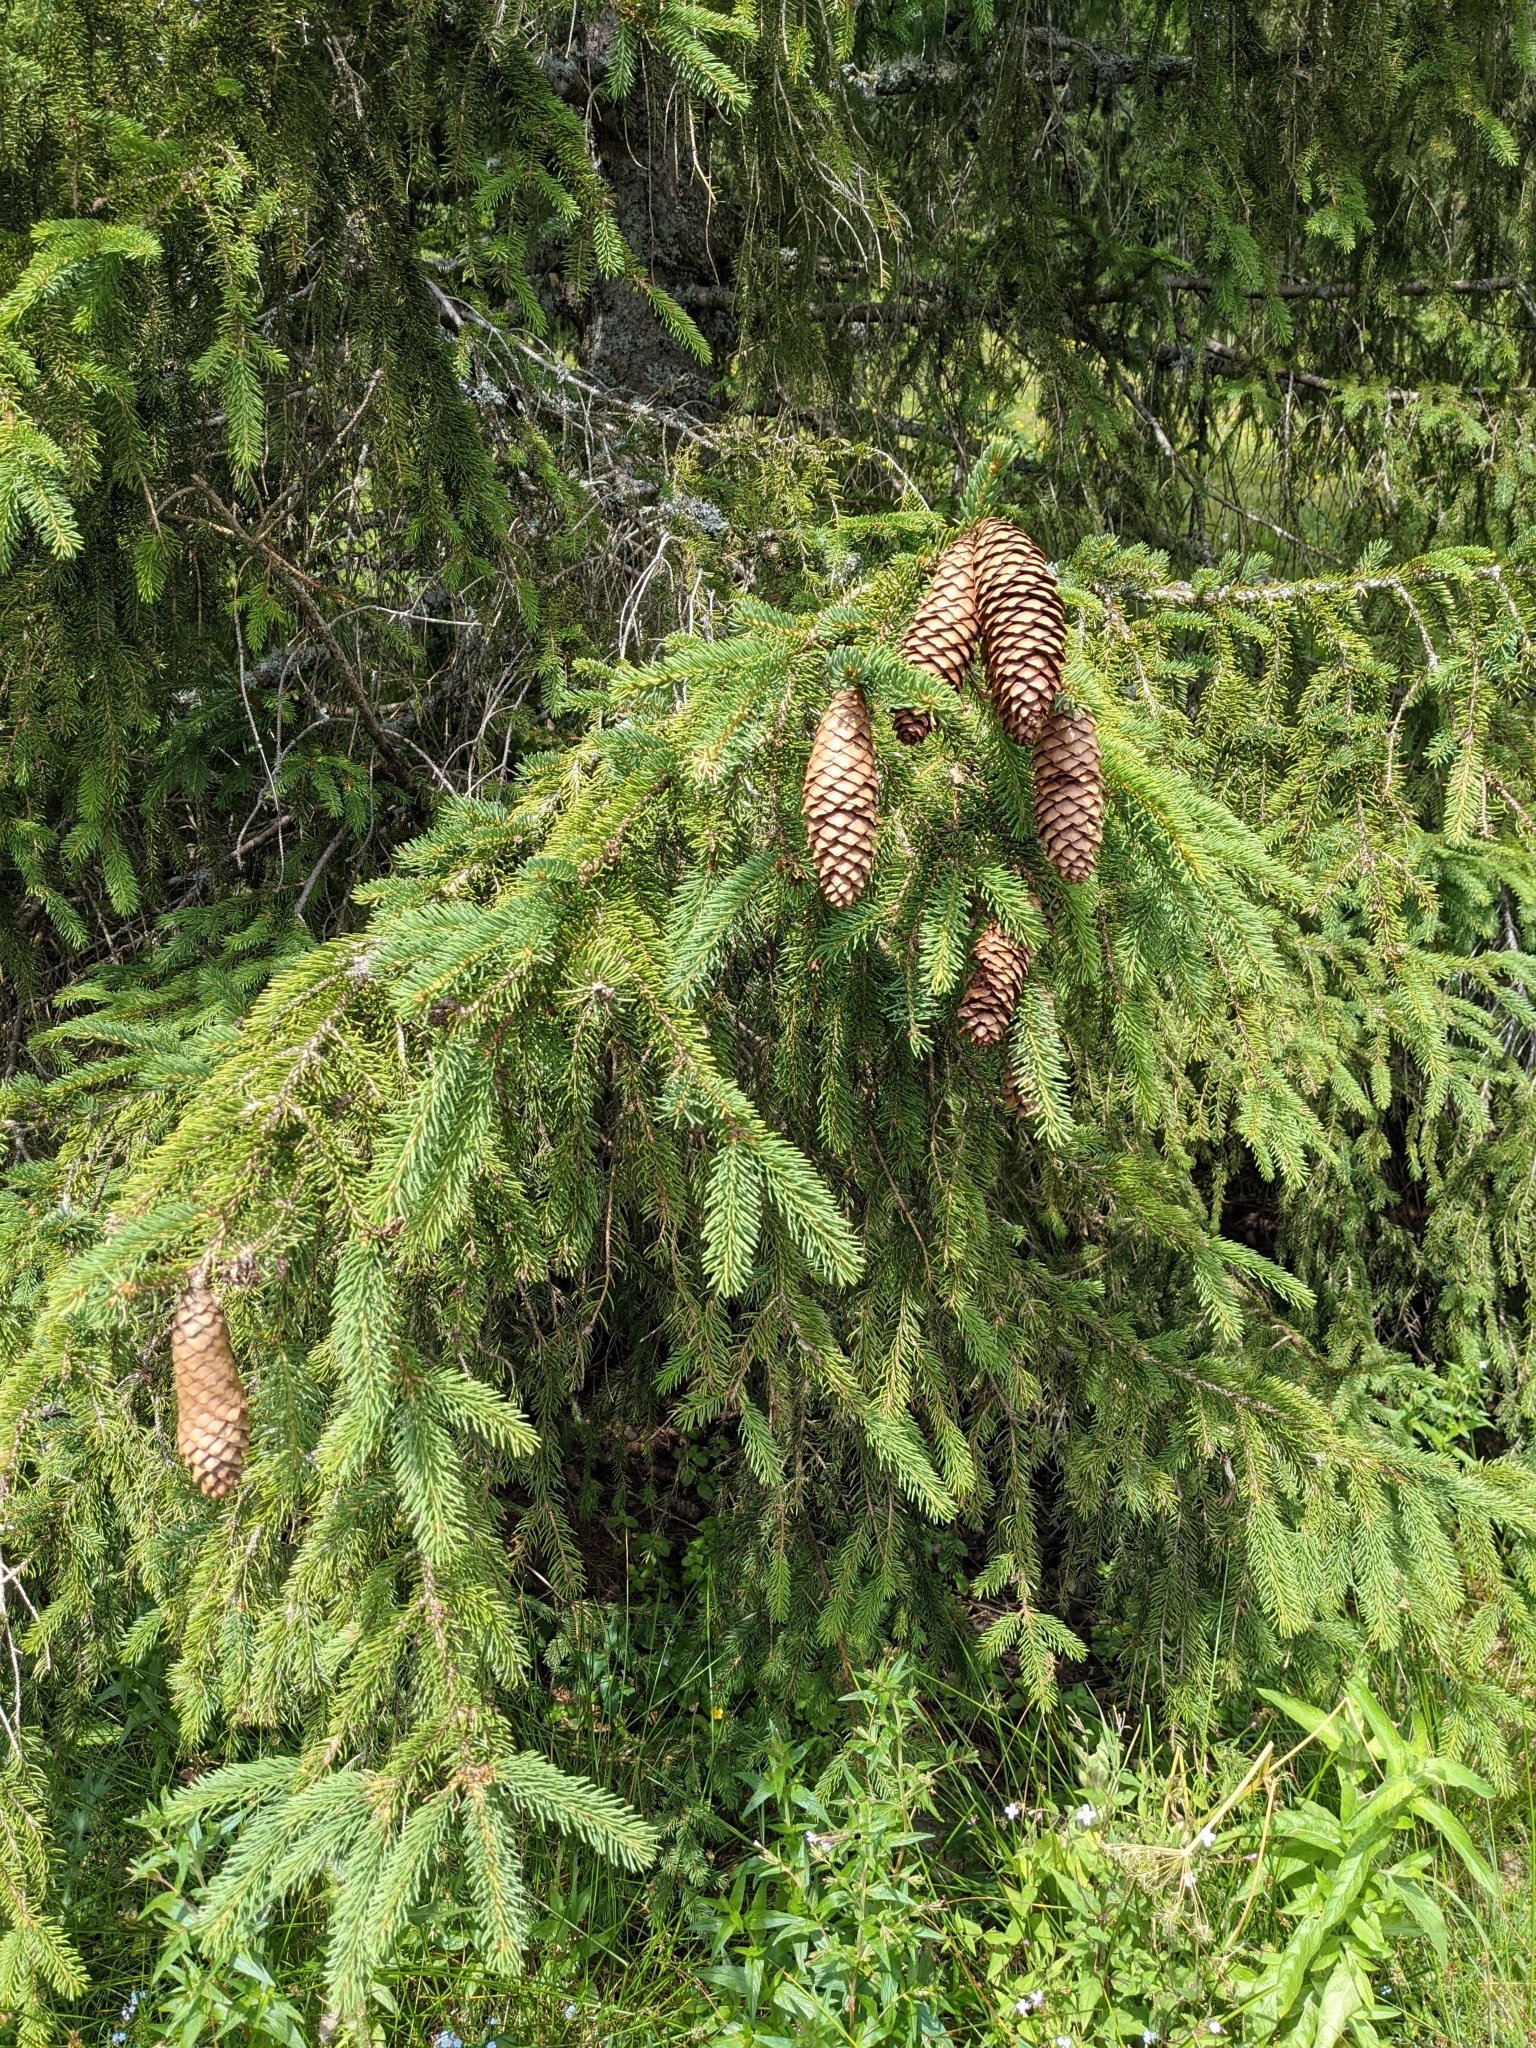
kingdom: Plantae
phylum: Tracheophyta
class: Pinopsida
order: Pinales
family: Pinaceae
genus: Picea
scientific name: Picea abies
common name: Norway spruce
